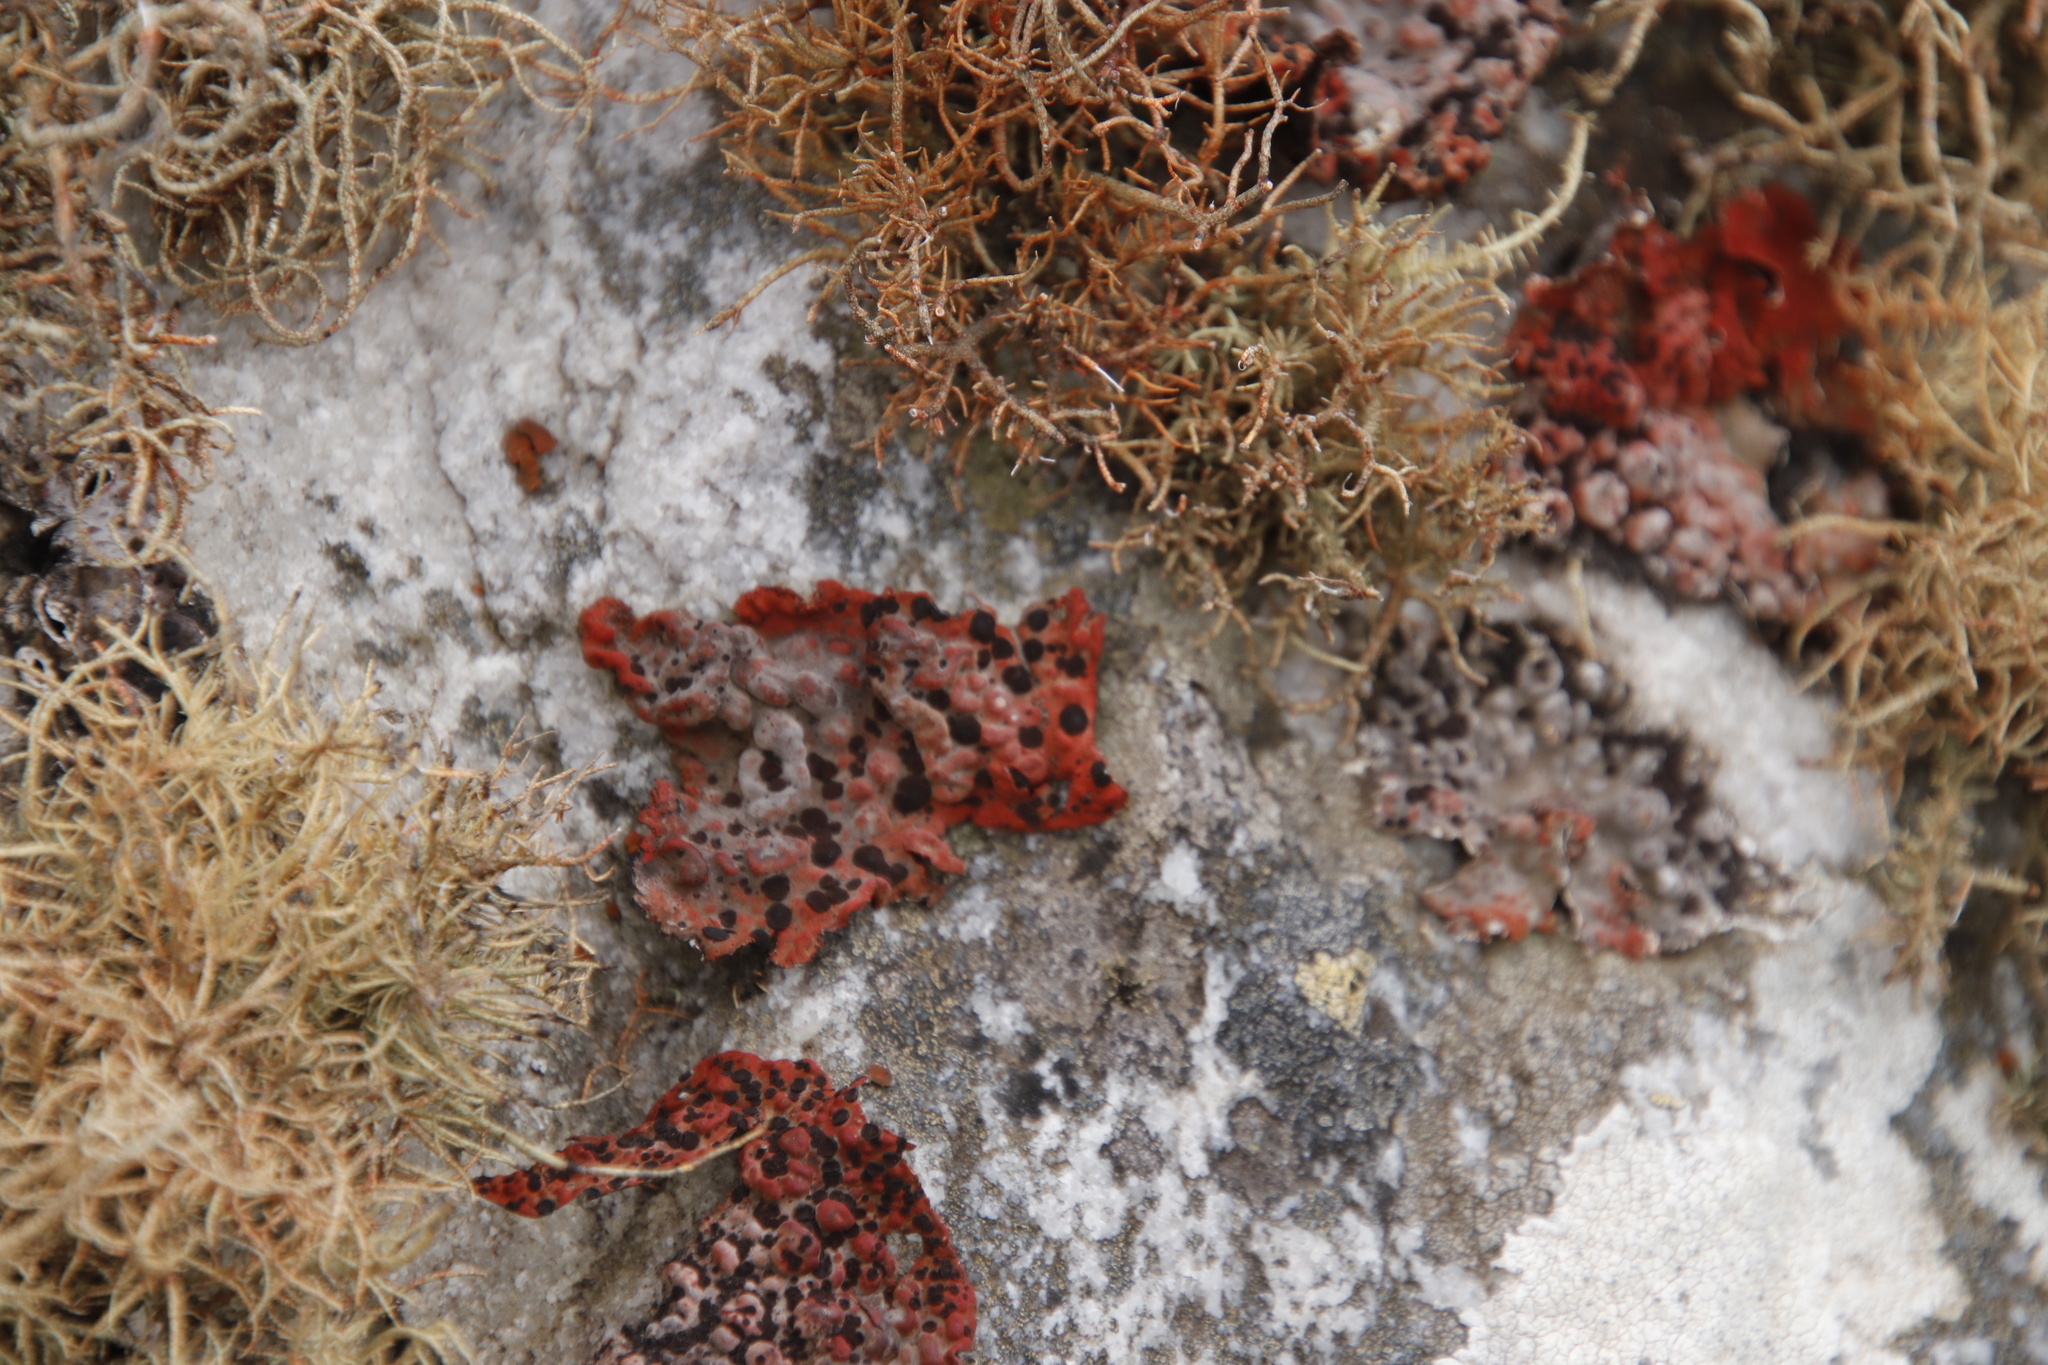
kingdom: Fungi
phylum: Ascomycota
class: Lecanoromycetes
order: Umbilicariales
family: Umbilicariaceae
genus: Lasallia
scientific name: Lasallia rubiginosa
